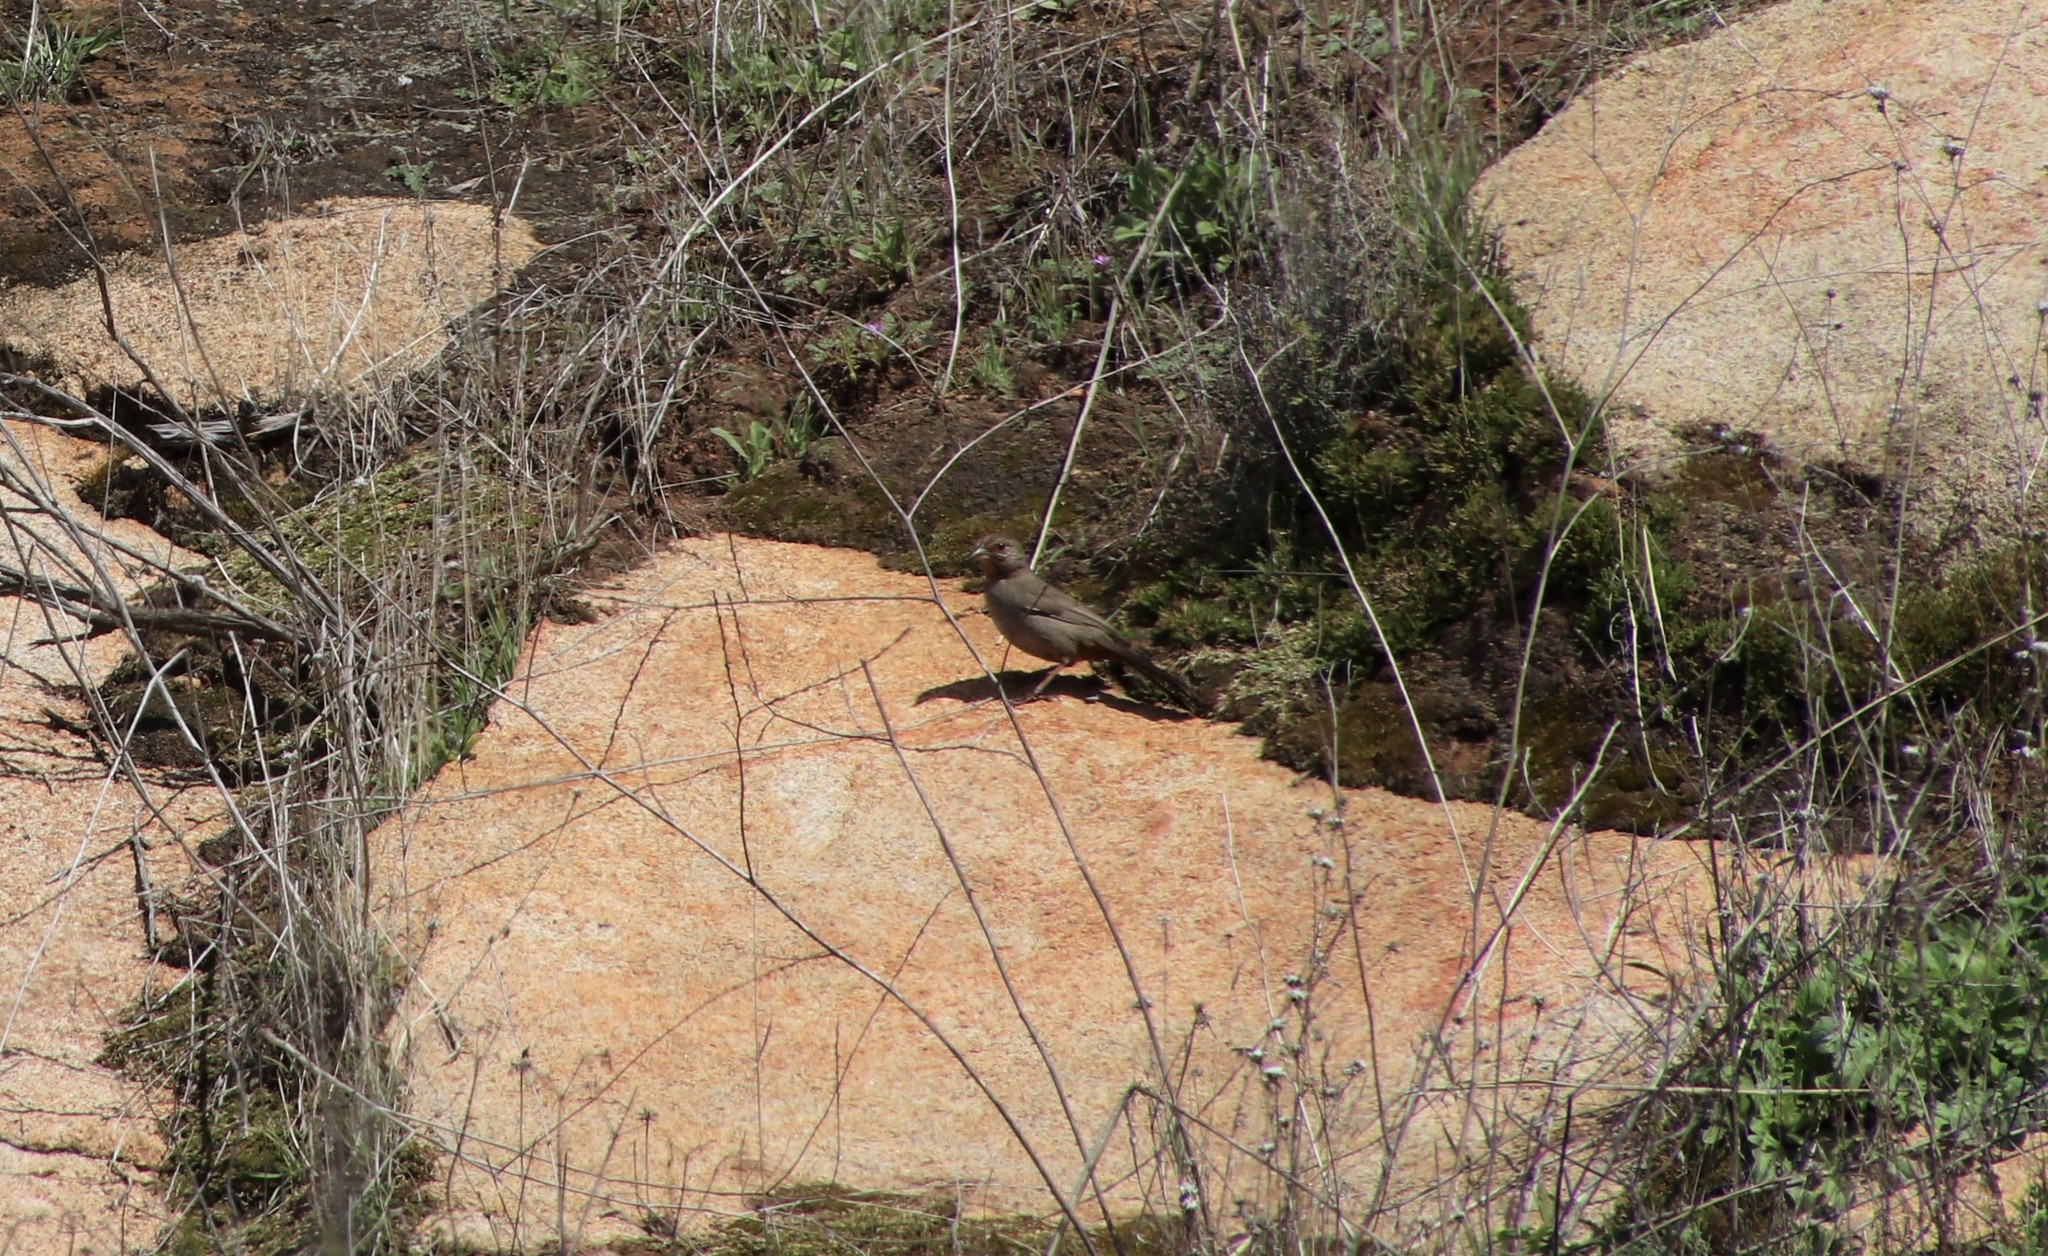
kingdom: Animalia
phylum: Chordata
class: Aves
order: Passeriformes
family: Passerellidae
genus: Melozone
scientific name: Melozone crissalis
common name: California towhee
